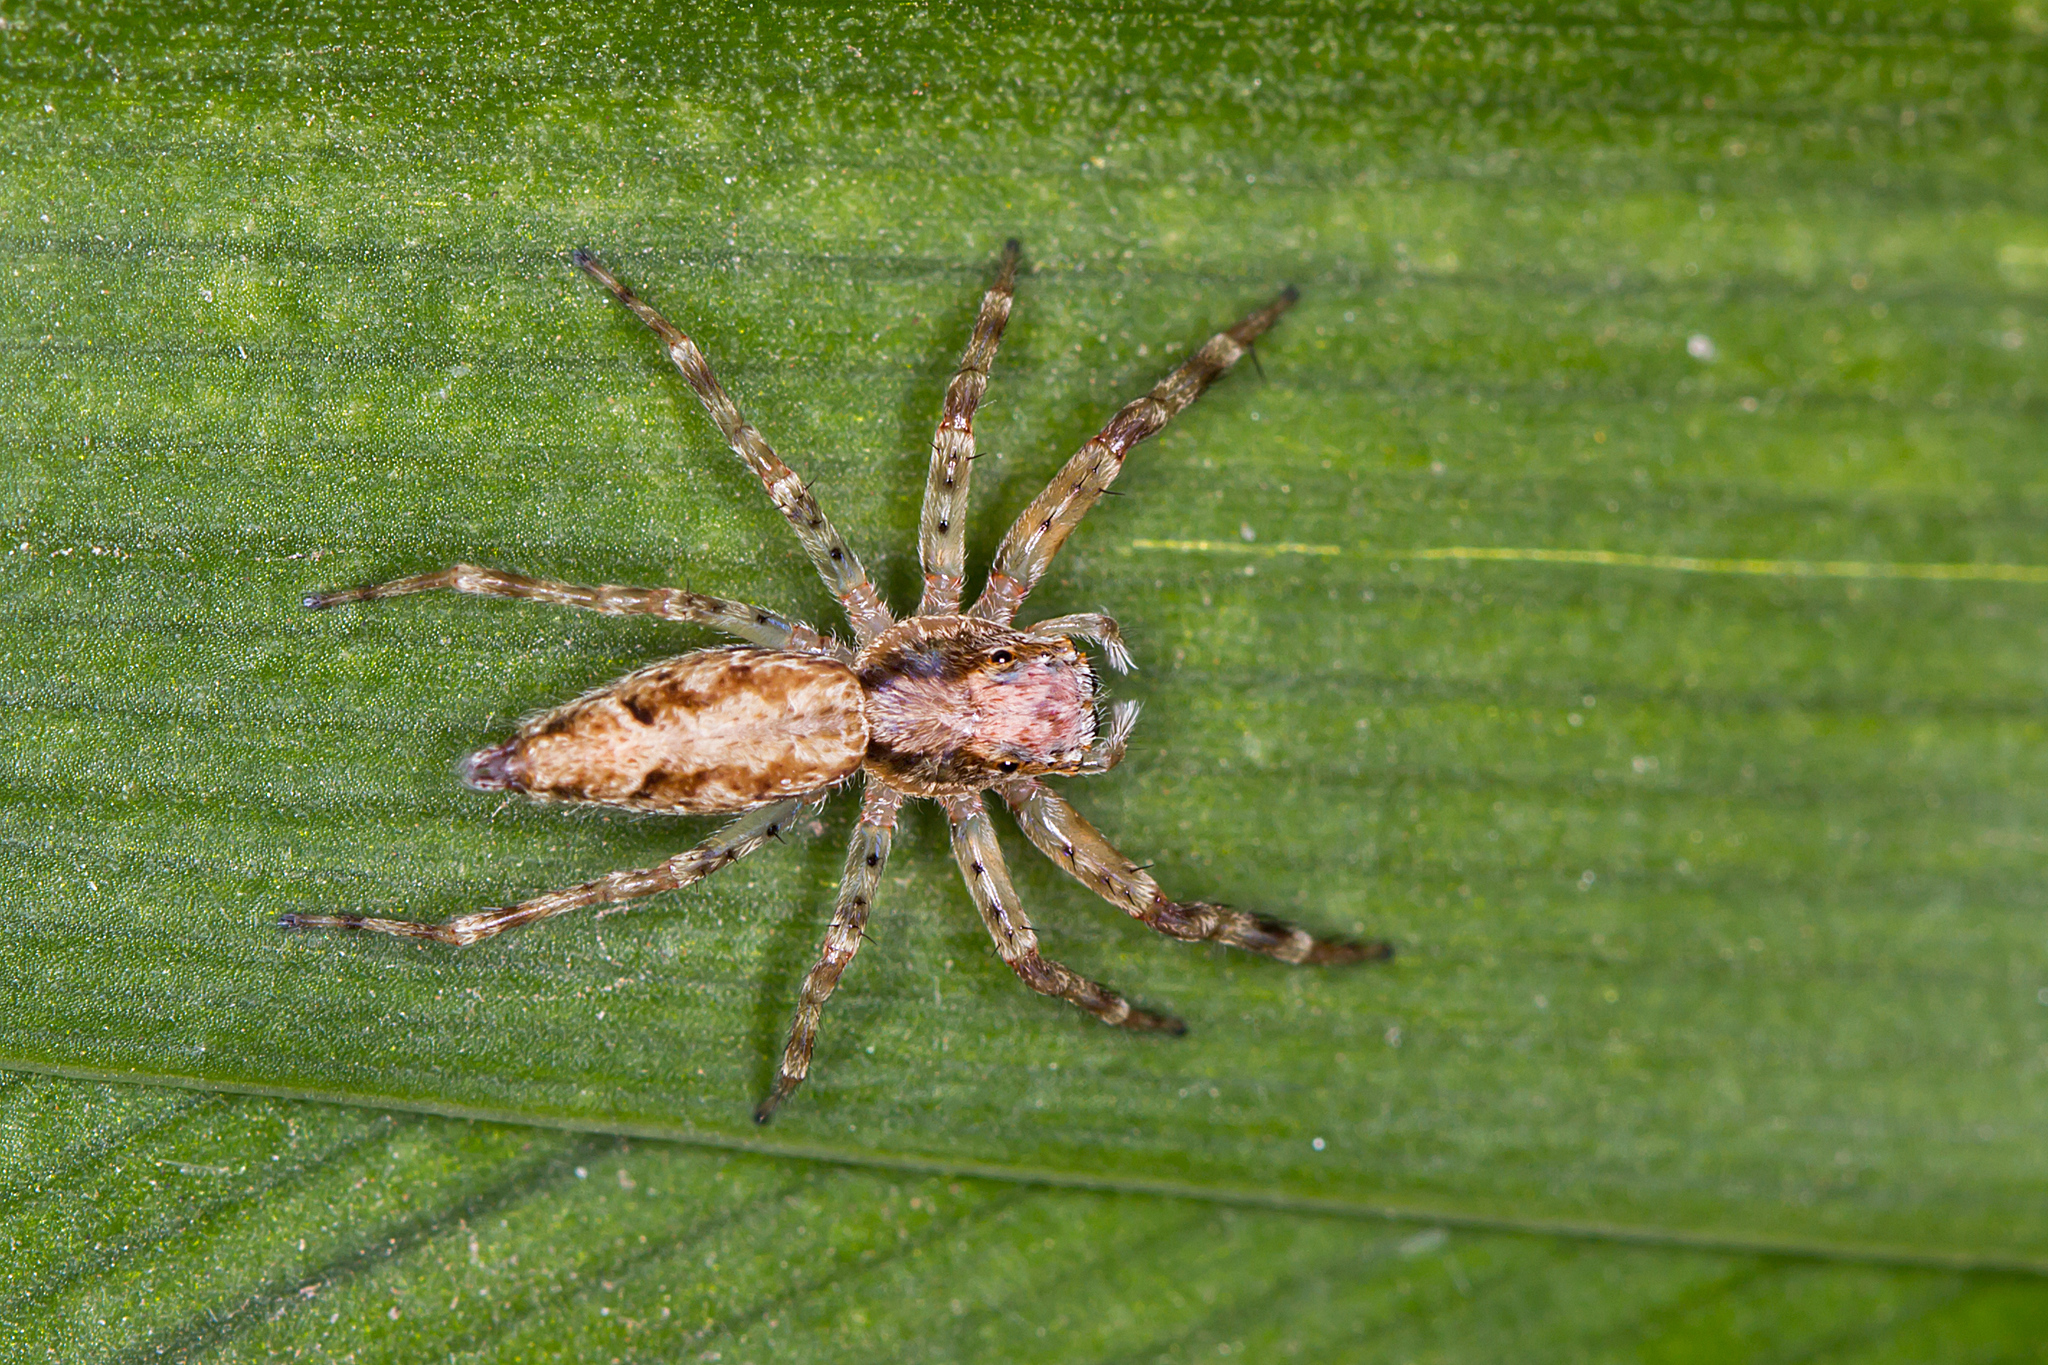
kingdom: Animalia
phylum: Arthropoda
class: Arachnida
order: Araneae
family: Salticidae
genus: Helpis
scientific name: Helpis minitabunda
